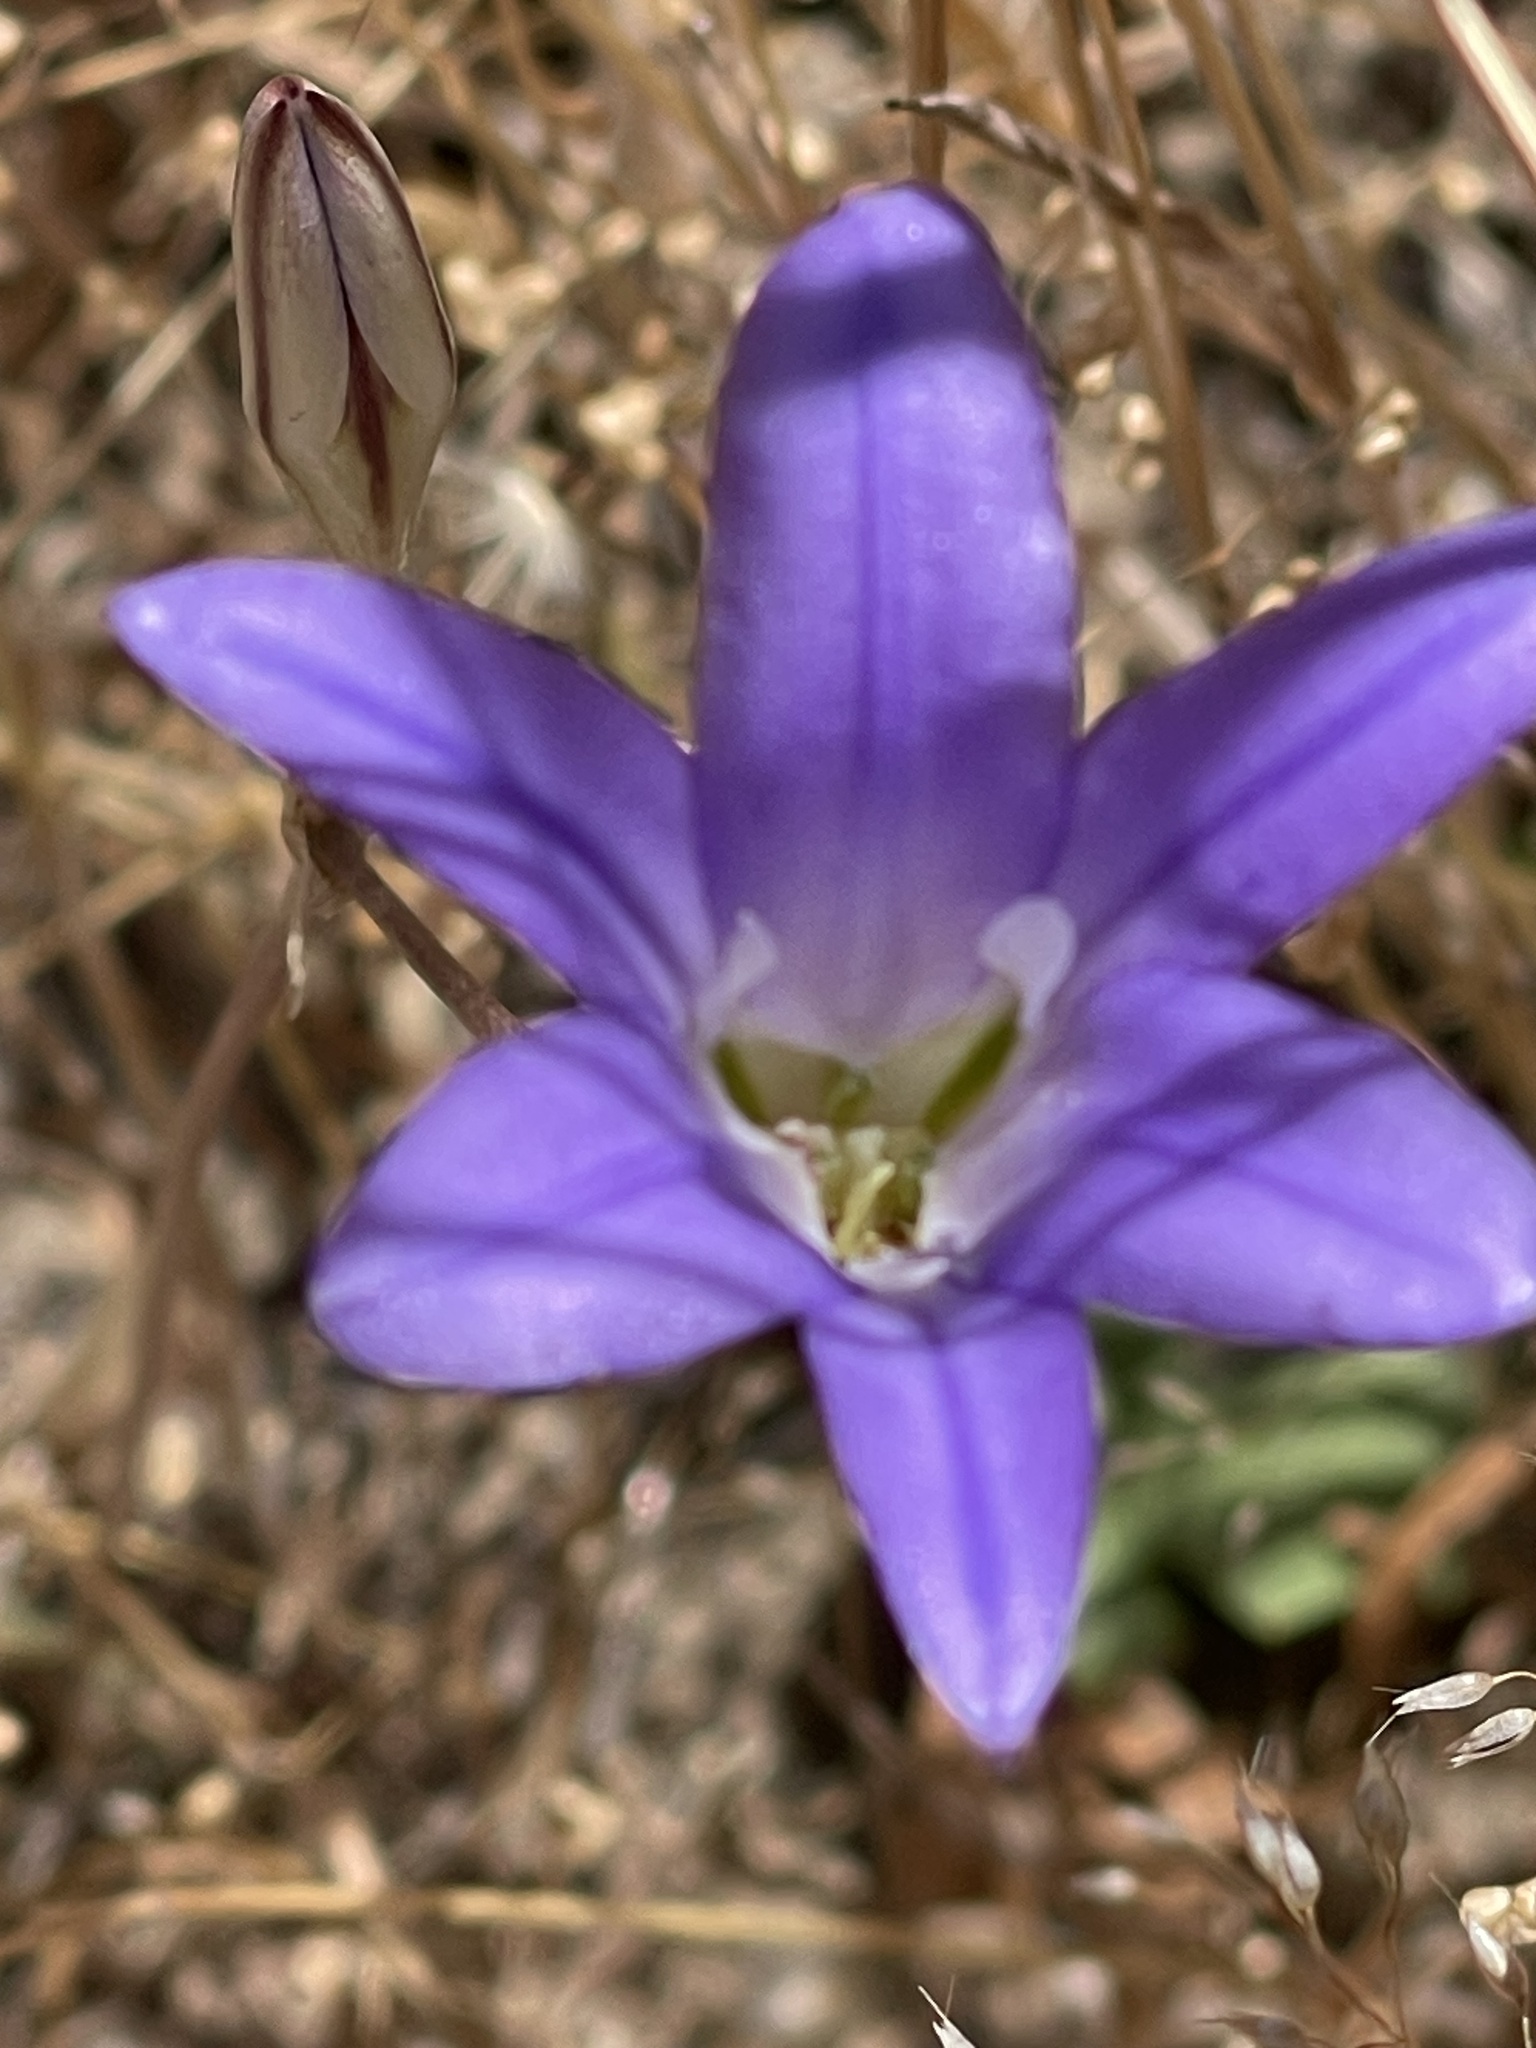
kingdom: Plantae
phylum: Tracheophyta
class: Liliopsida
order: Asparagales
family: Asparagaceae
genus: Brodiaea
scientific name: Brodiaea elegans
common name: Elegant cluster-lily
